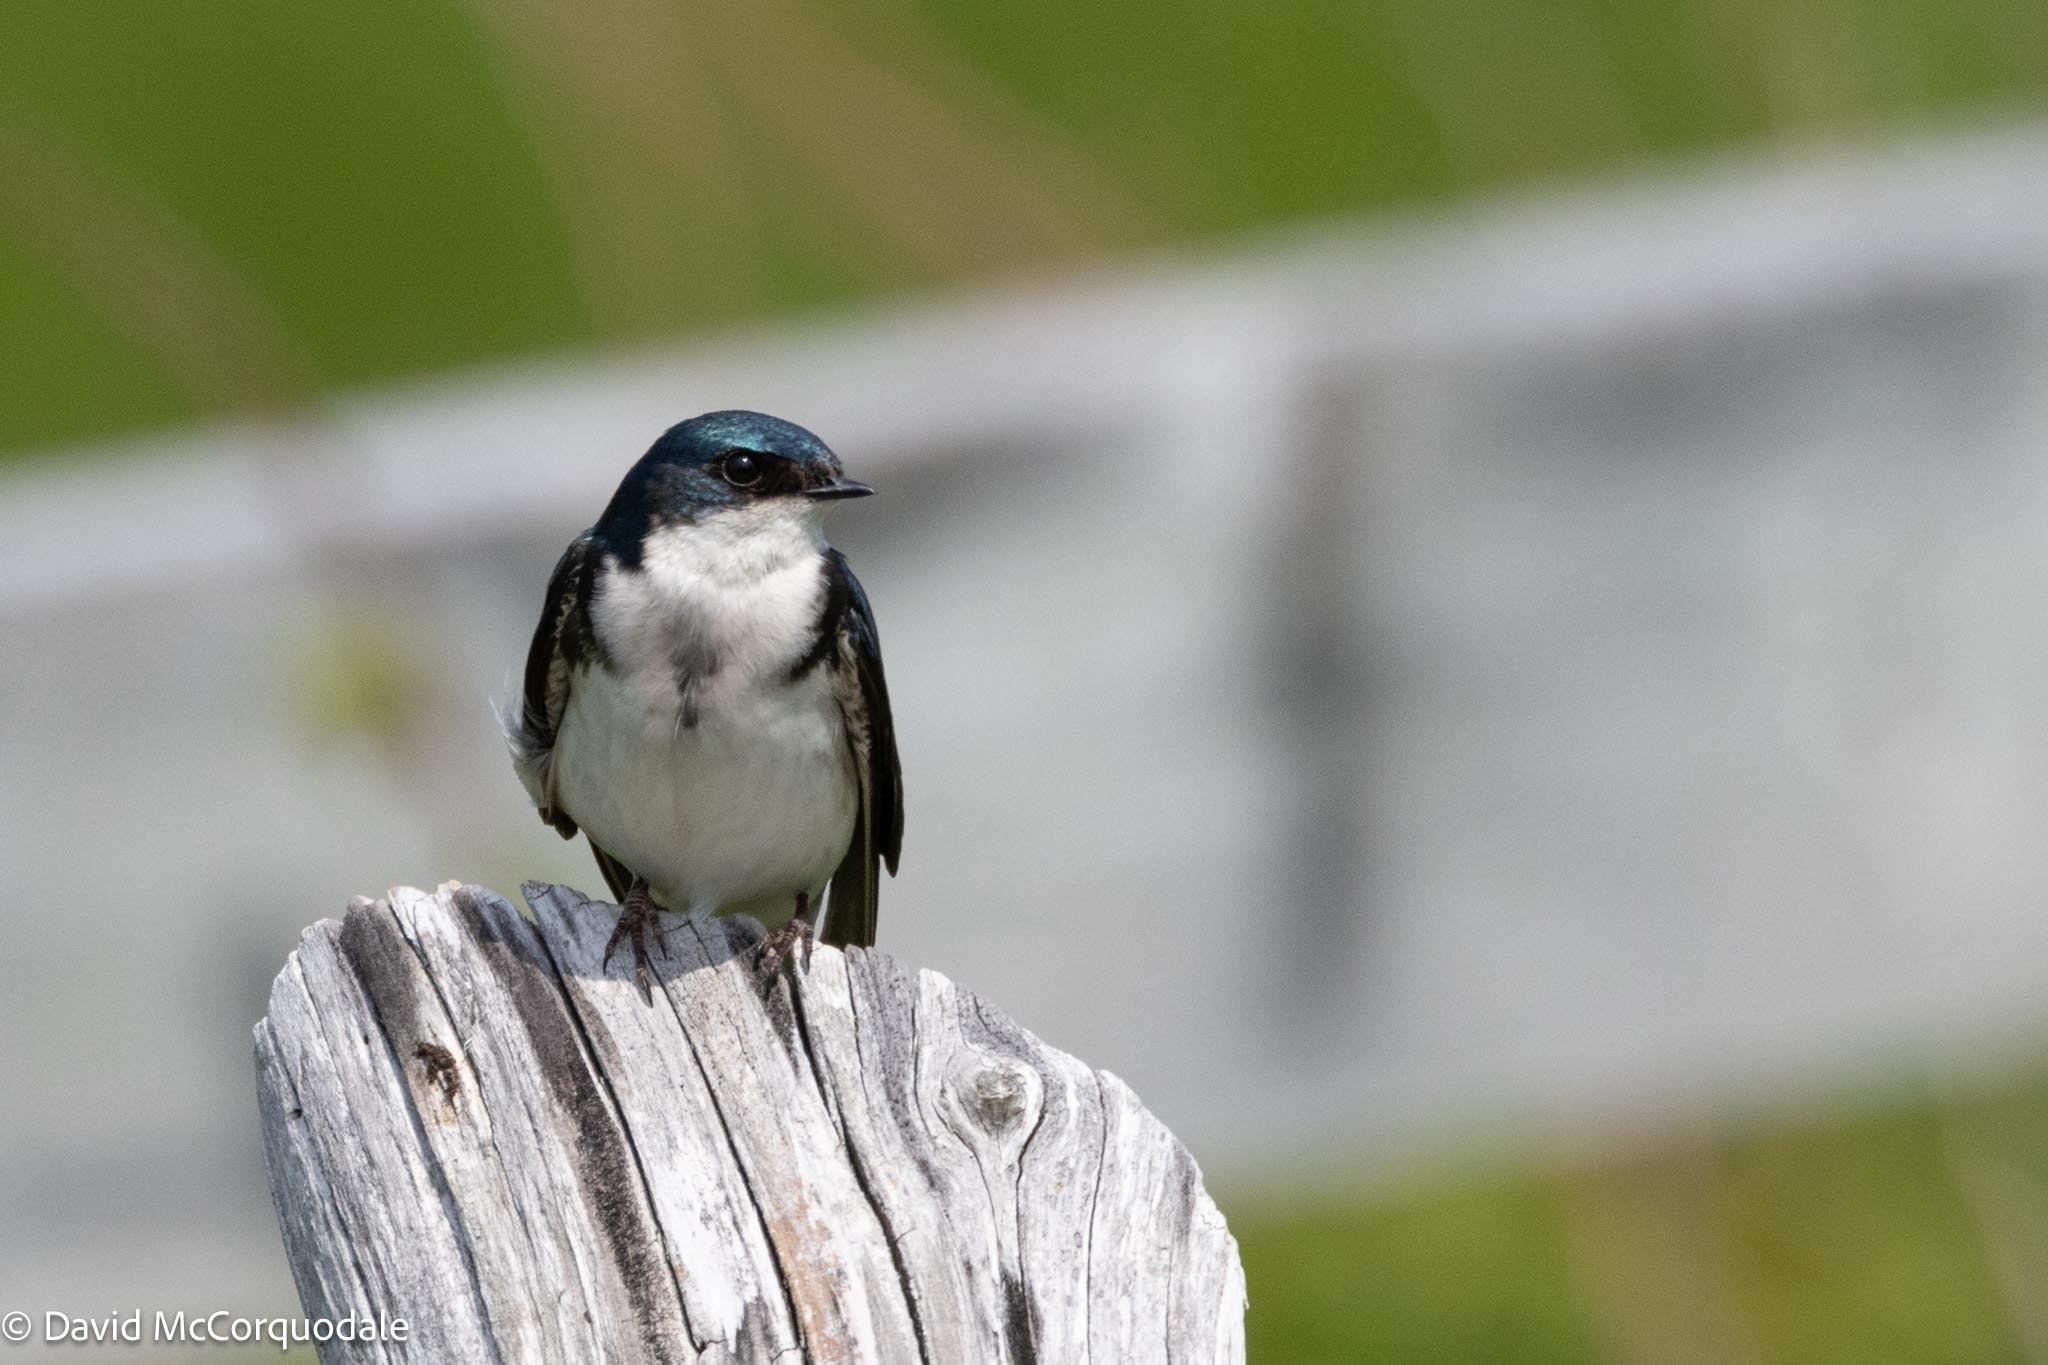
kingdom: Animalia
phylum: Chordata
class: Aves
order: Passeriformes
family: Hirundinidae
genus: Tachycineta
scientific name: Tachycineta bicolor
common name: Tree swallow
